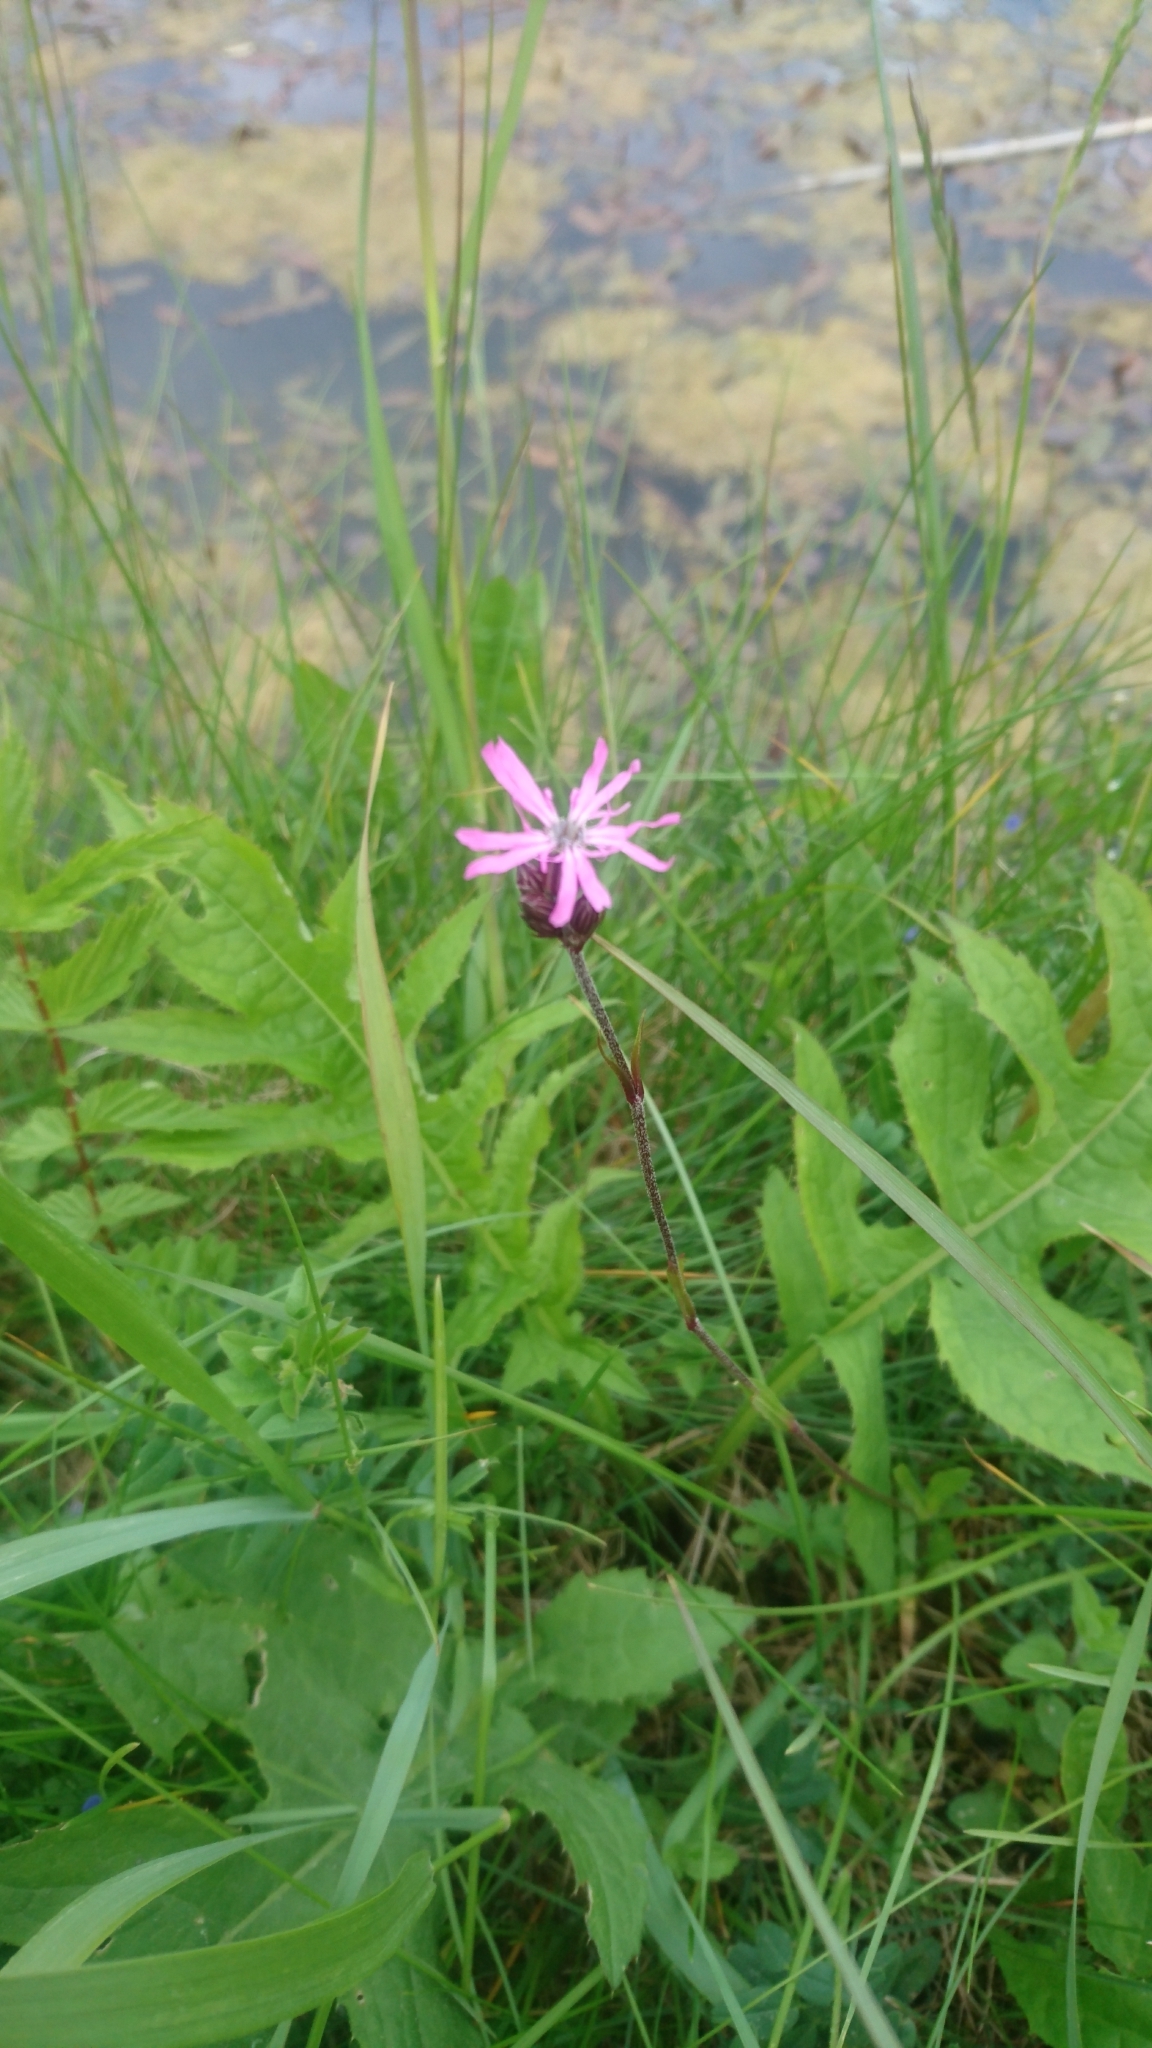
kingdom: Plantae
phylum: Tracheophyta
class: Magnoliopsida
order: Caryophyllales
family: Caryophyllaceae
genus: Silene
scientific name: Silene flos-cuculi
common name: Ragged-robin
